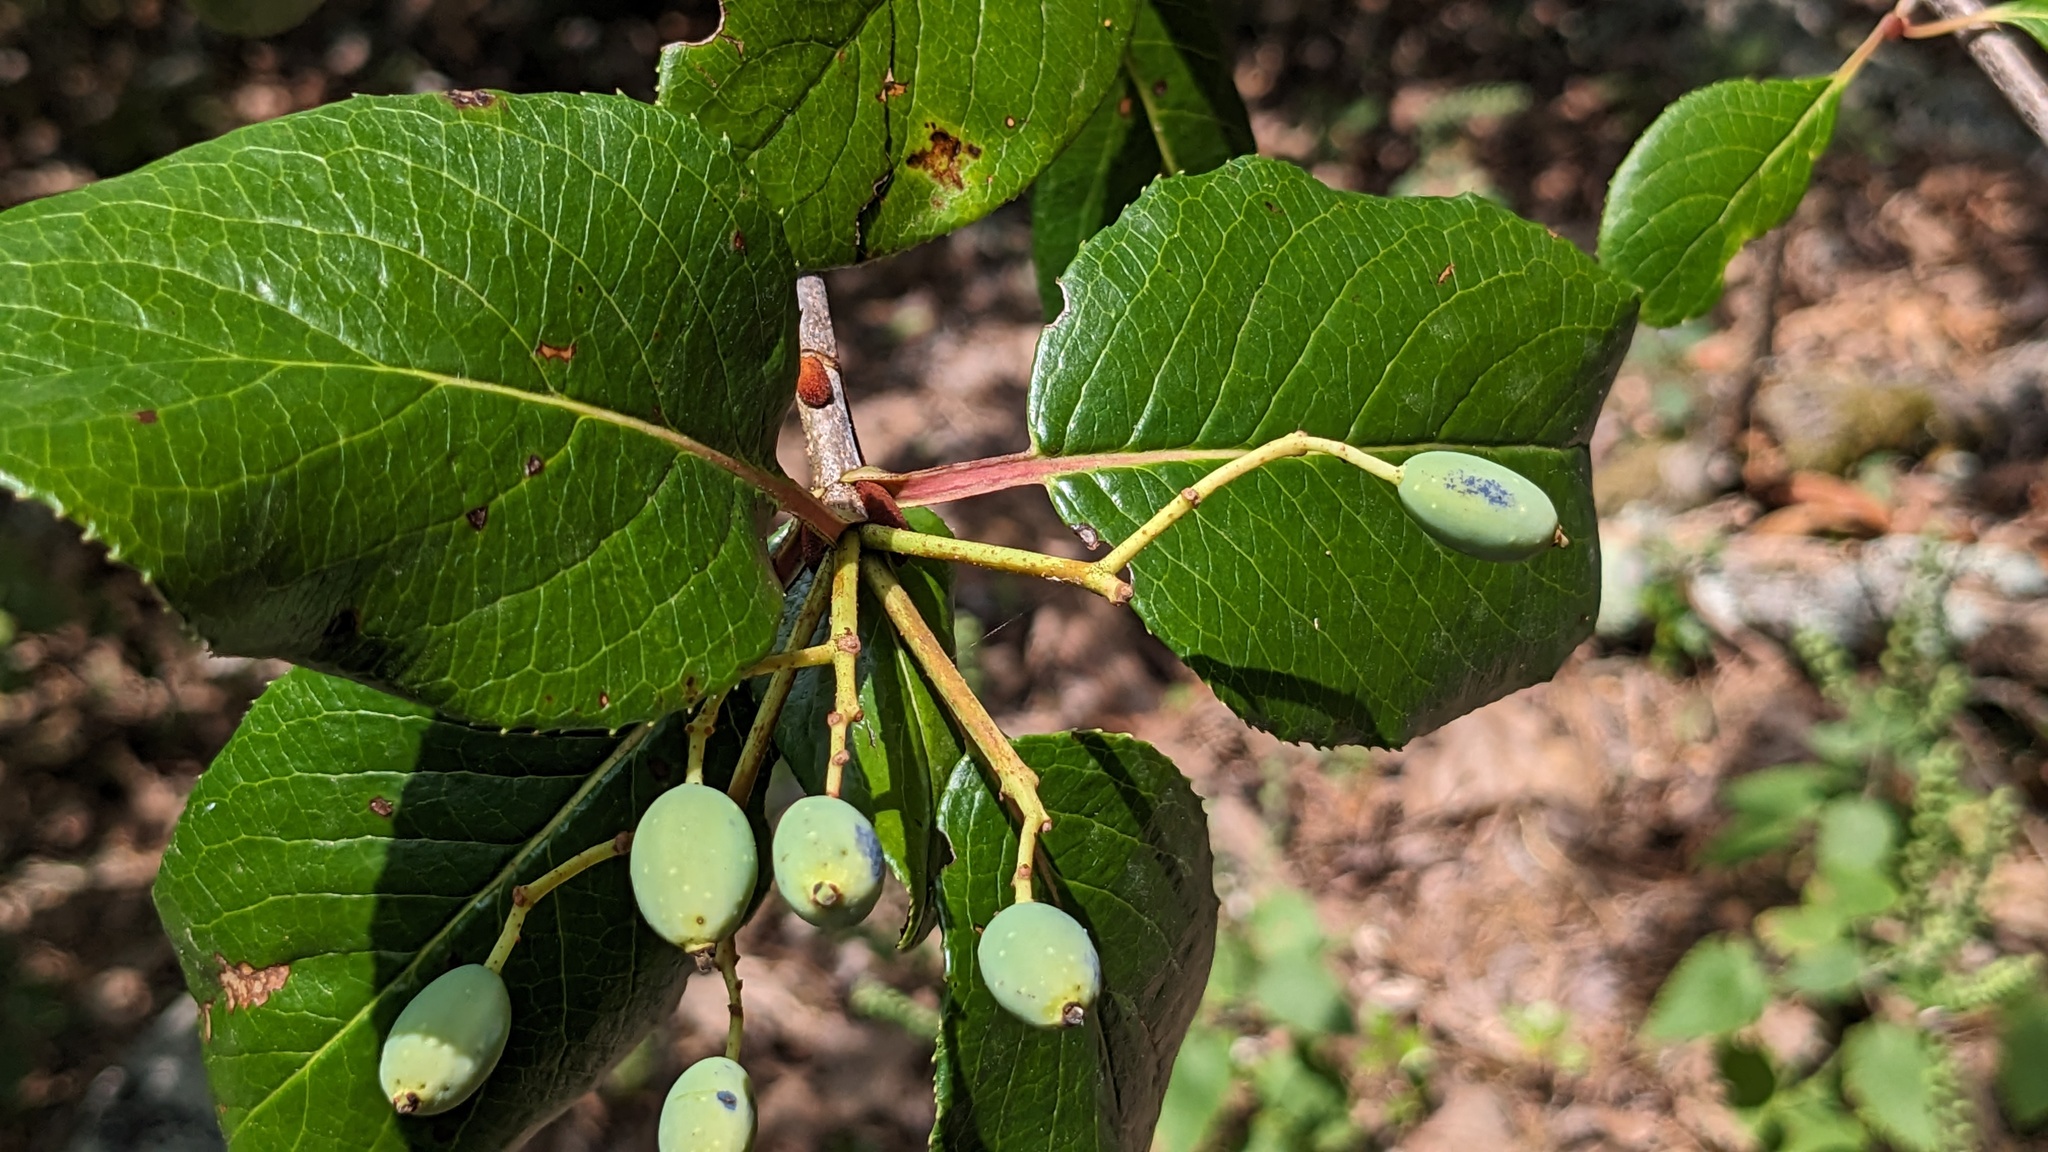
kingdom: Plantae
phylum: Tracheophyta
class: Magnoliopsida
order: Dipsacales
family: Viburnaceae
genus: Viburnum
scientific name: Viburnum rufidulum
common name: Blue haw
